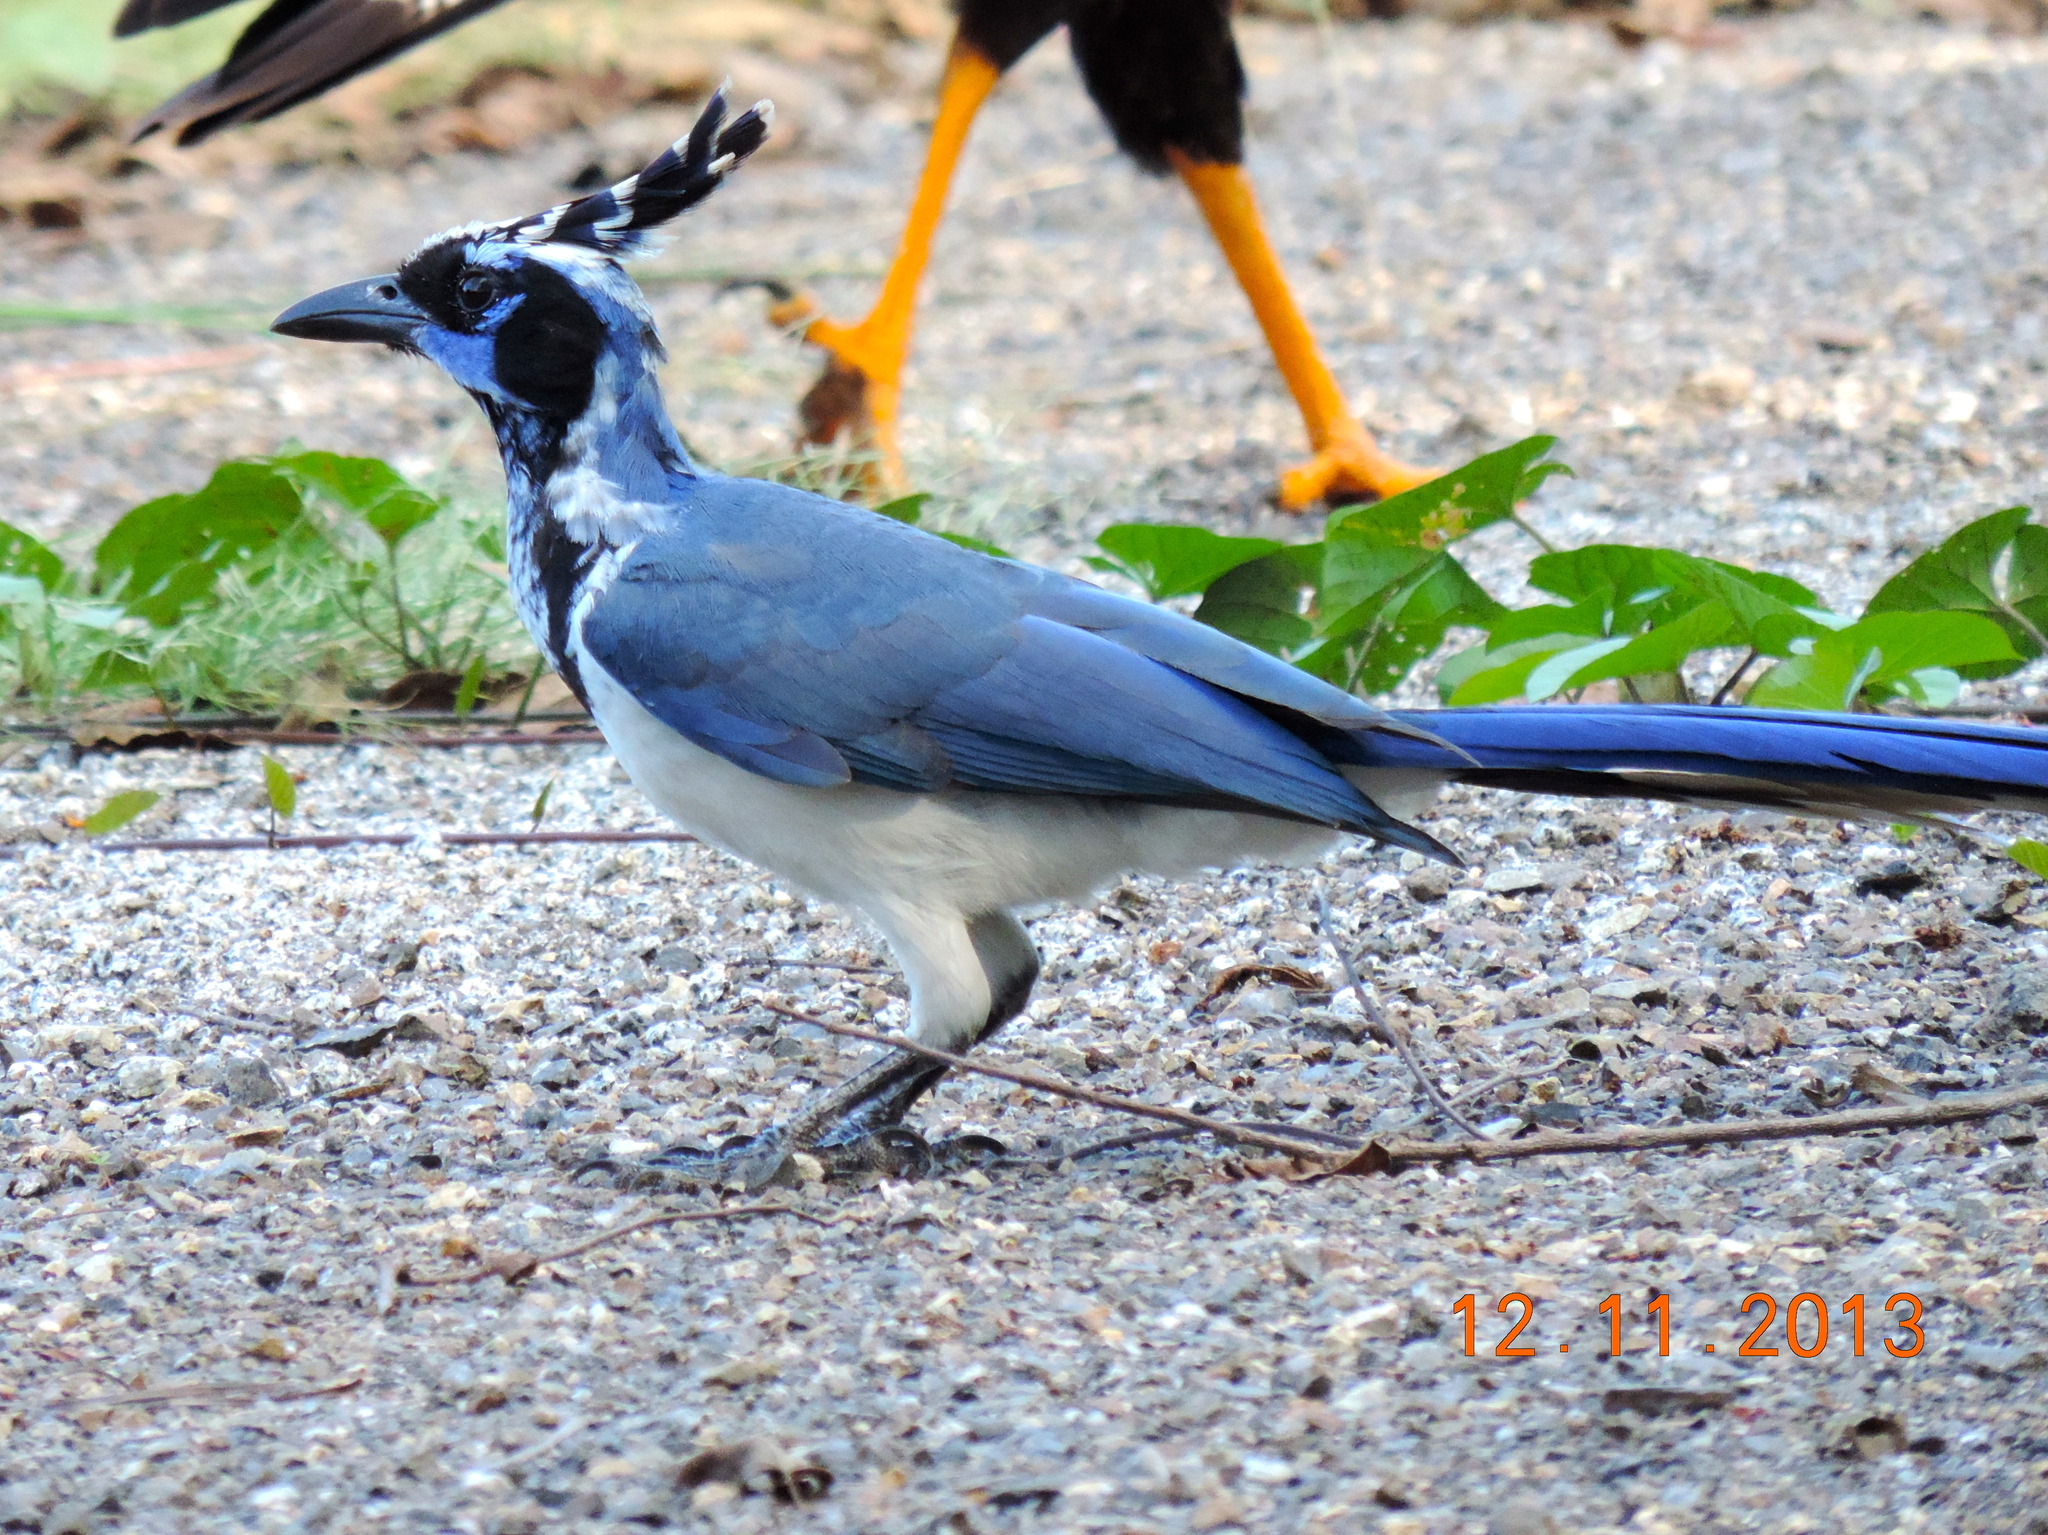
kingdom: Animalia
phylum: Chordata
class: Aves
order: Passeriformes
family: Corvidae
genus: Calocitta
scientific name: Calocitta colliei
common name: Black-throated magpie-jay
